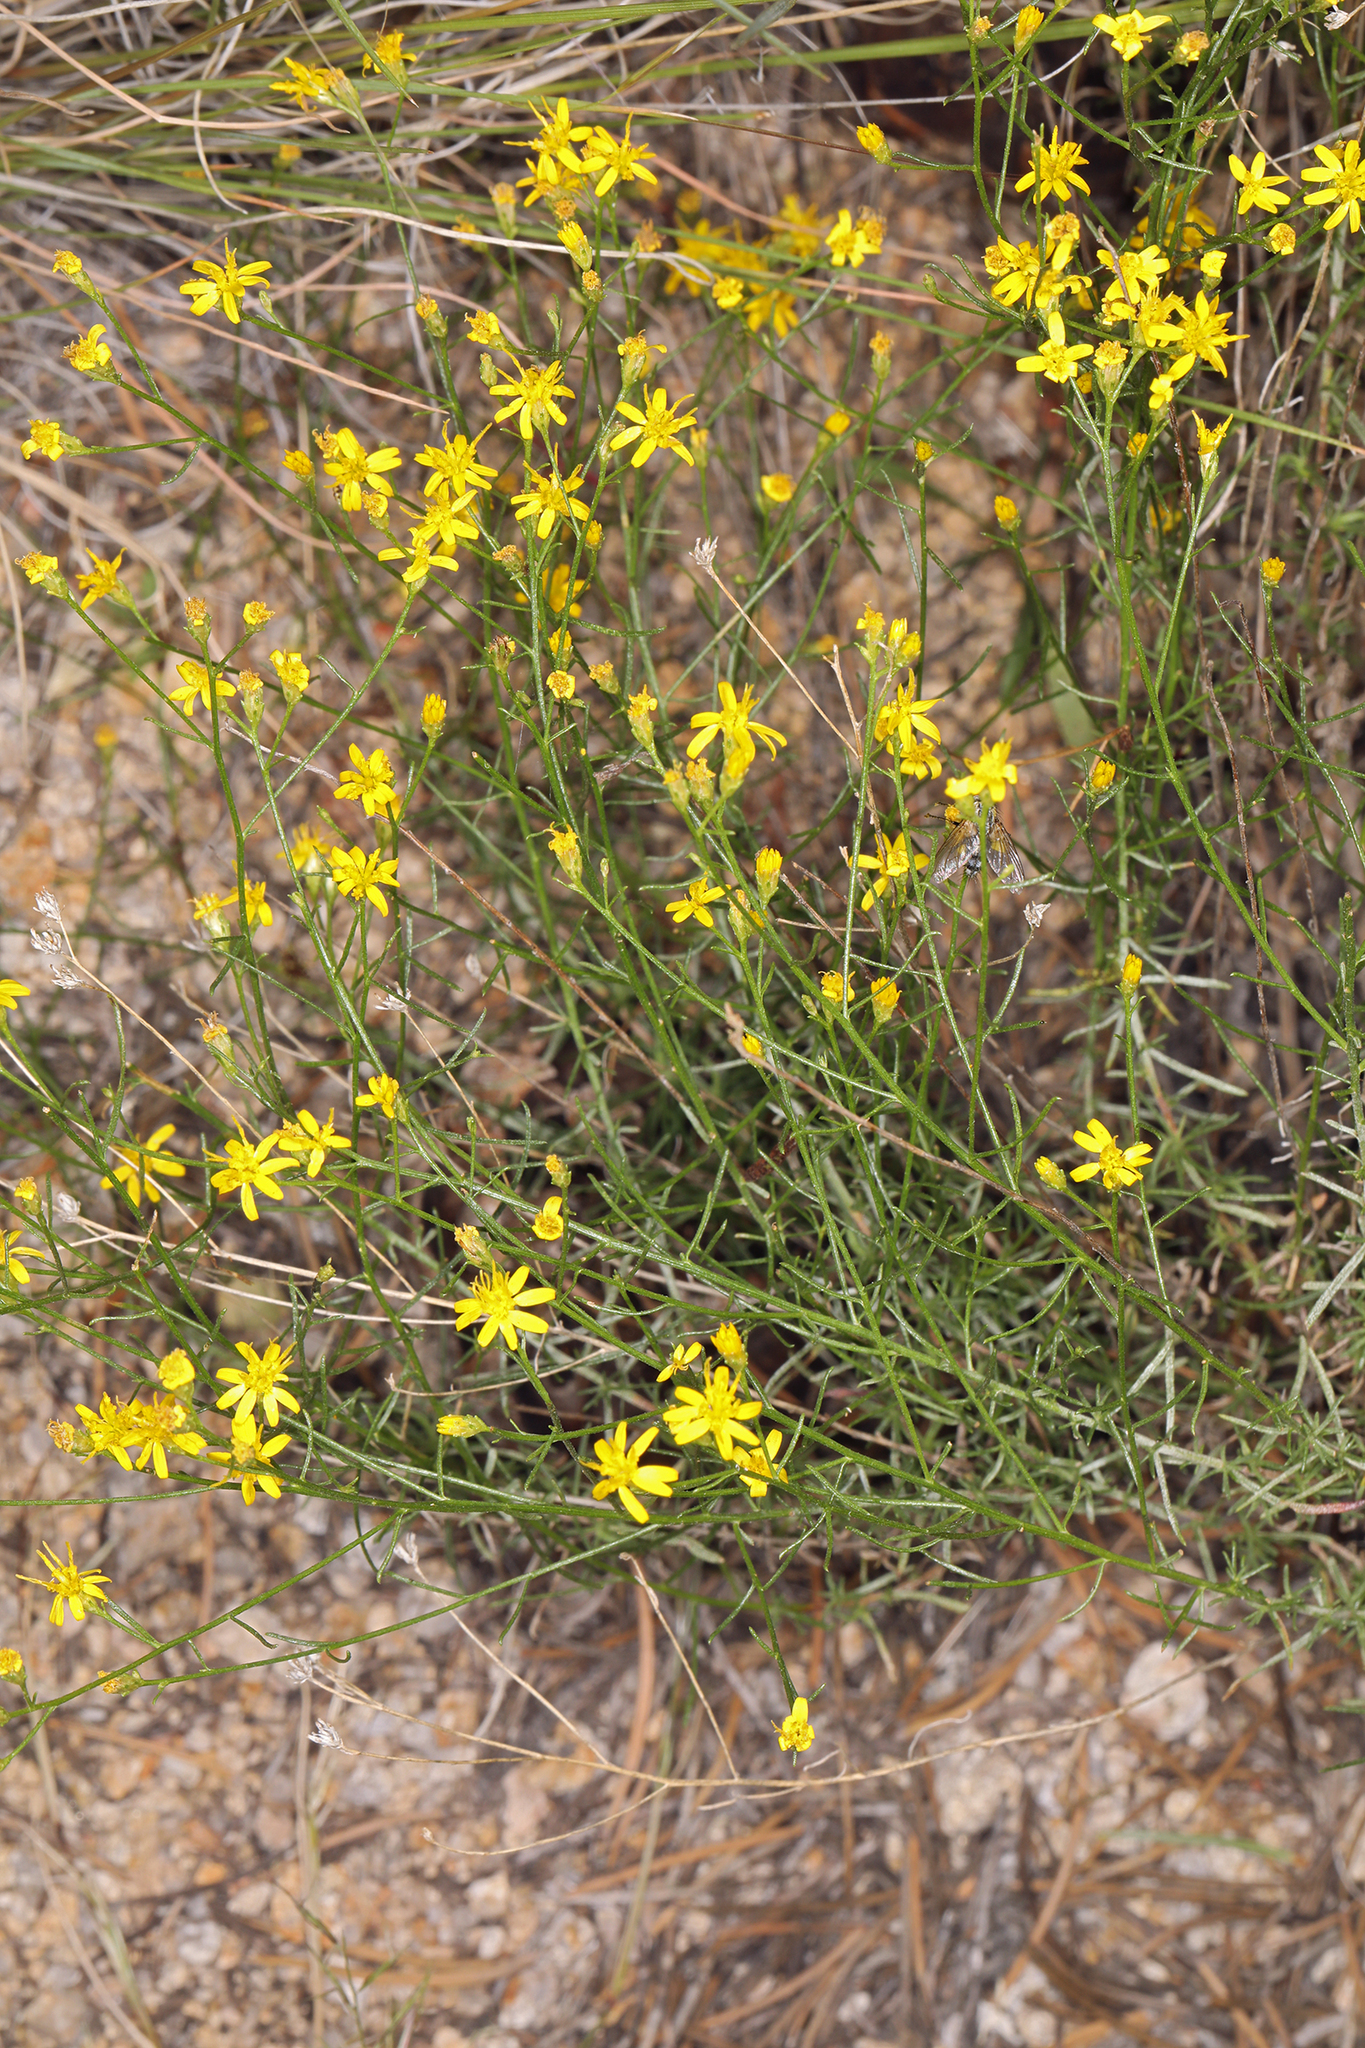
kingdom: Plantae
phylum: Tracheophyta
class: Magnoliopsida
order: Asterales
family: Asteraceae
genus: Gutierrezia
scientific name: Gutierrezia sarothrae
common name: Broom snakeweed
